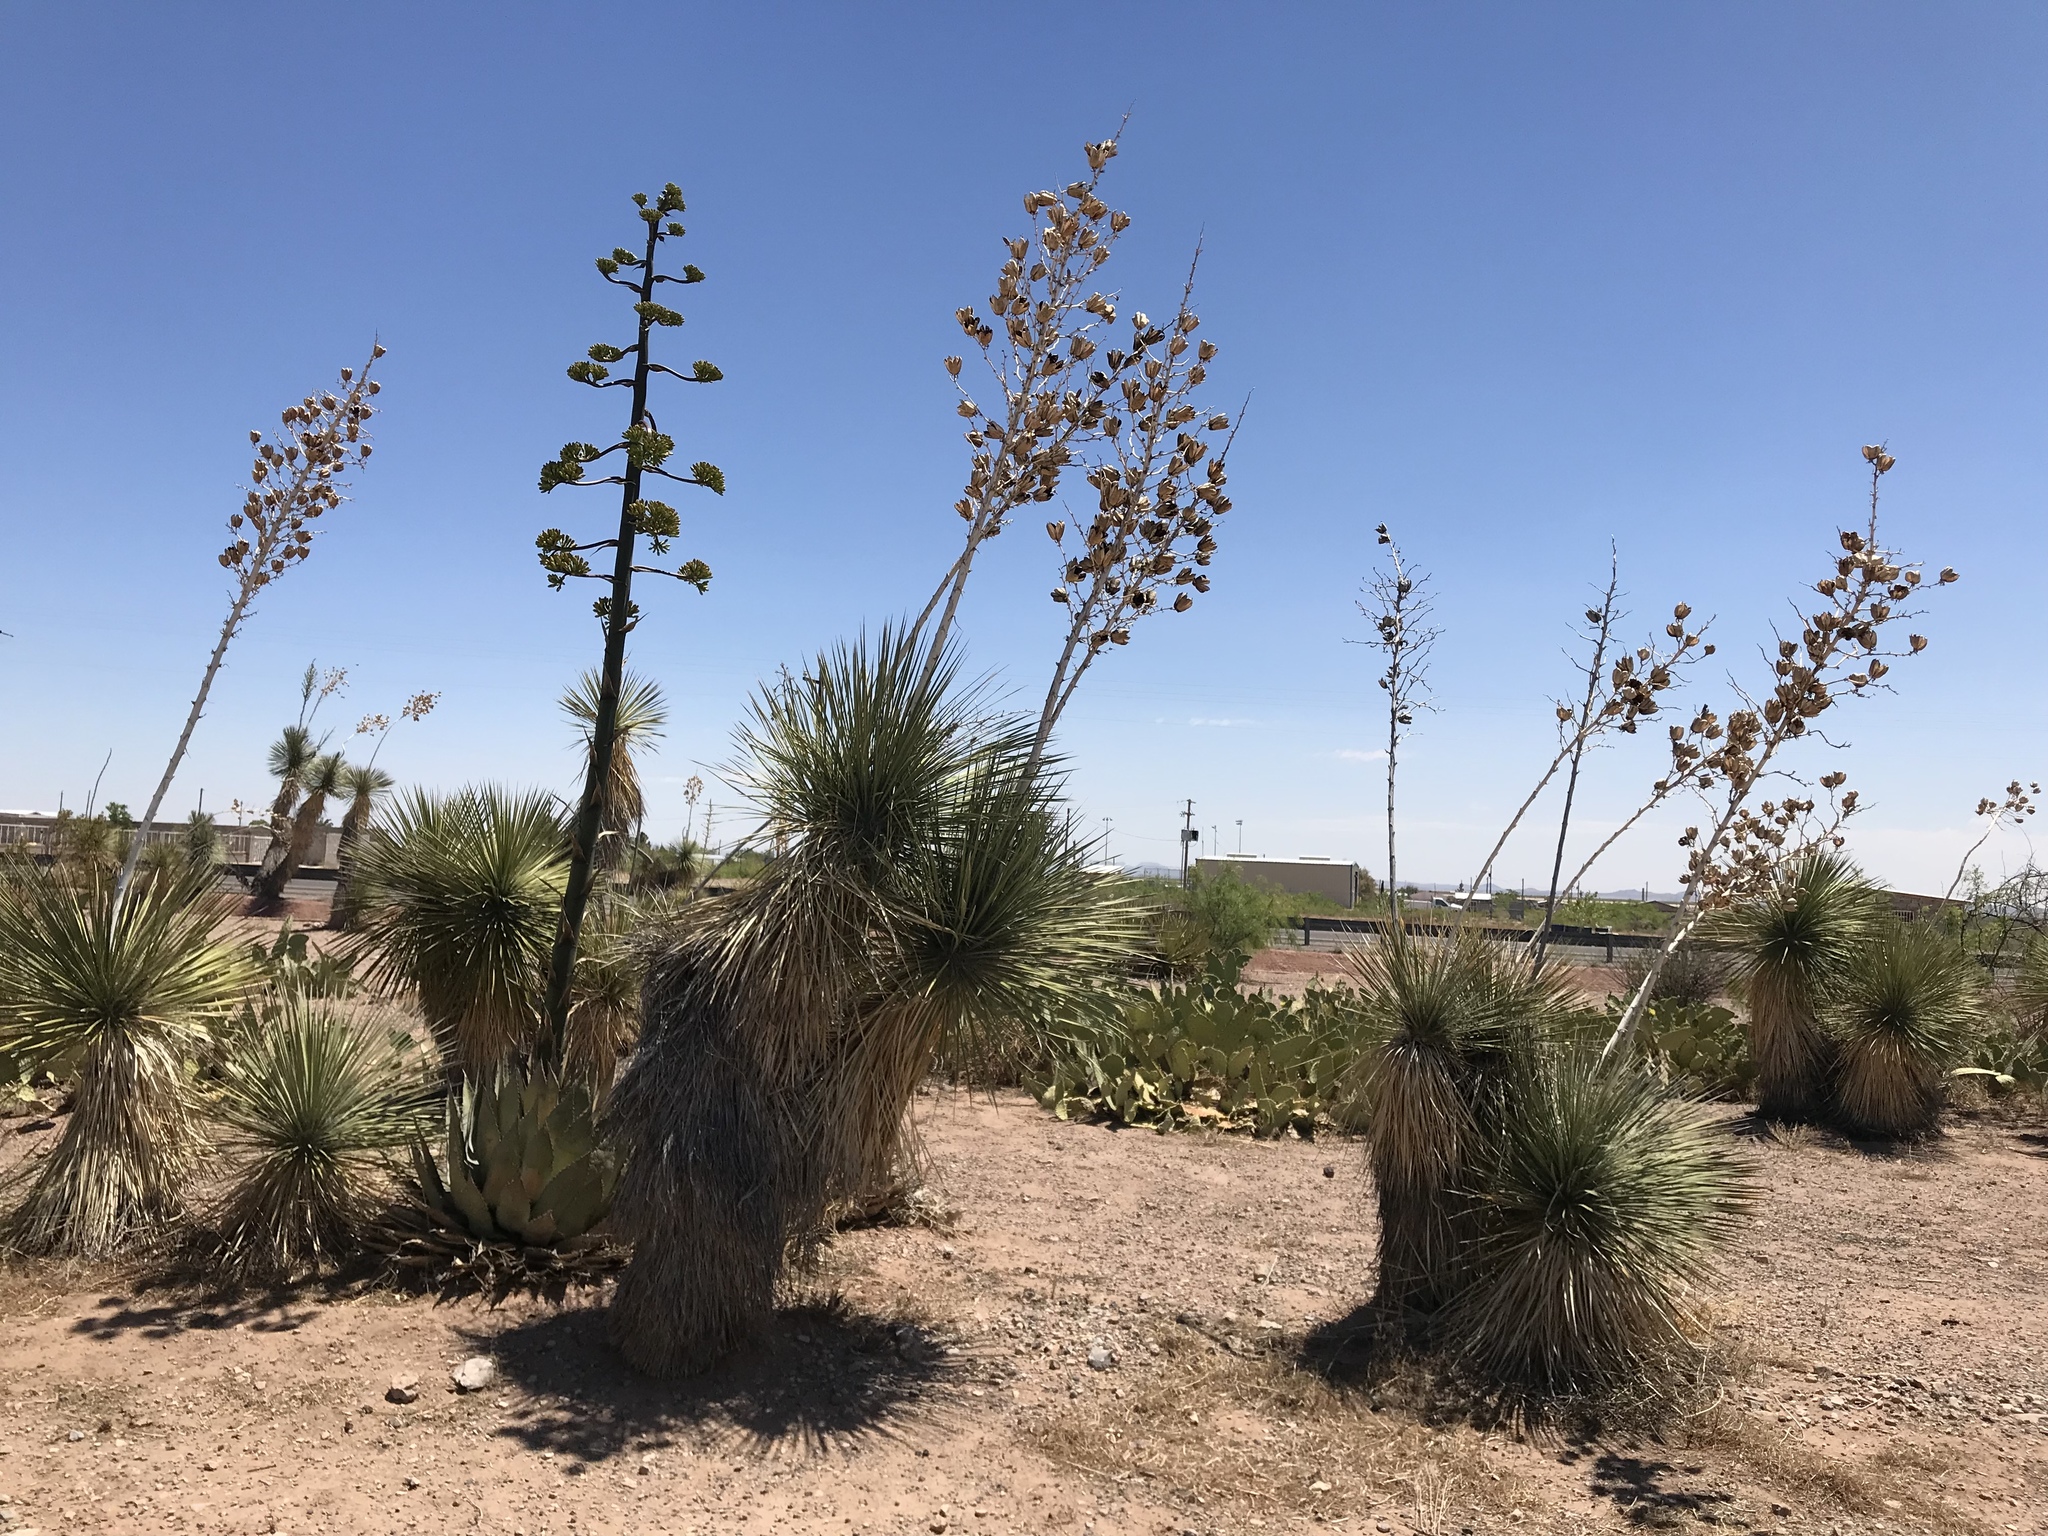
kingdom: Plantae
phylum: Tracheophyta
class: Liliopsida
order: Asparagales
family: Asparagaceae
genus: Yucca
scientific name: Yucca elata
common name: Palmella
